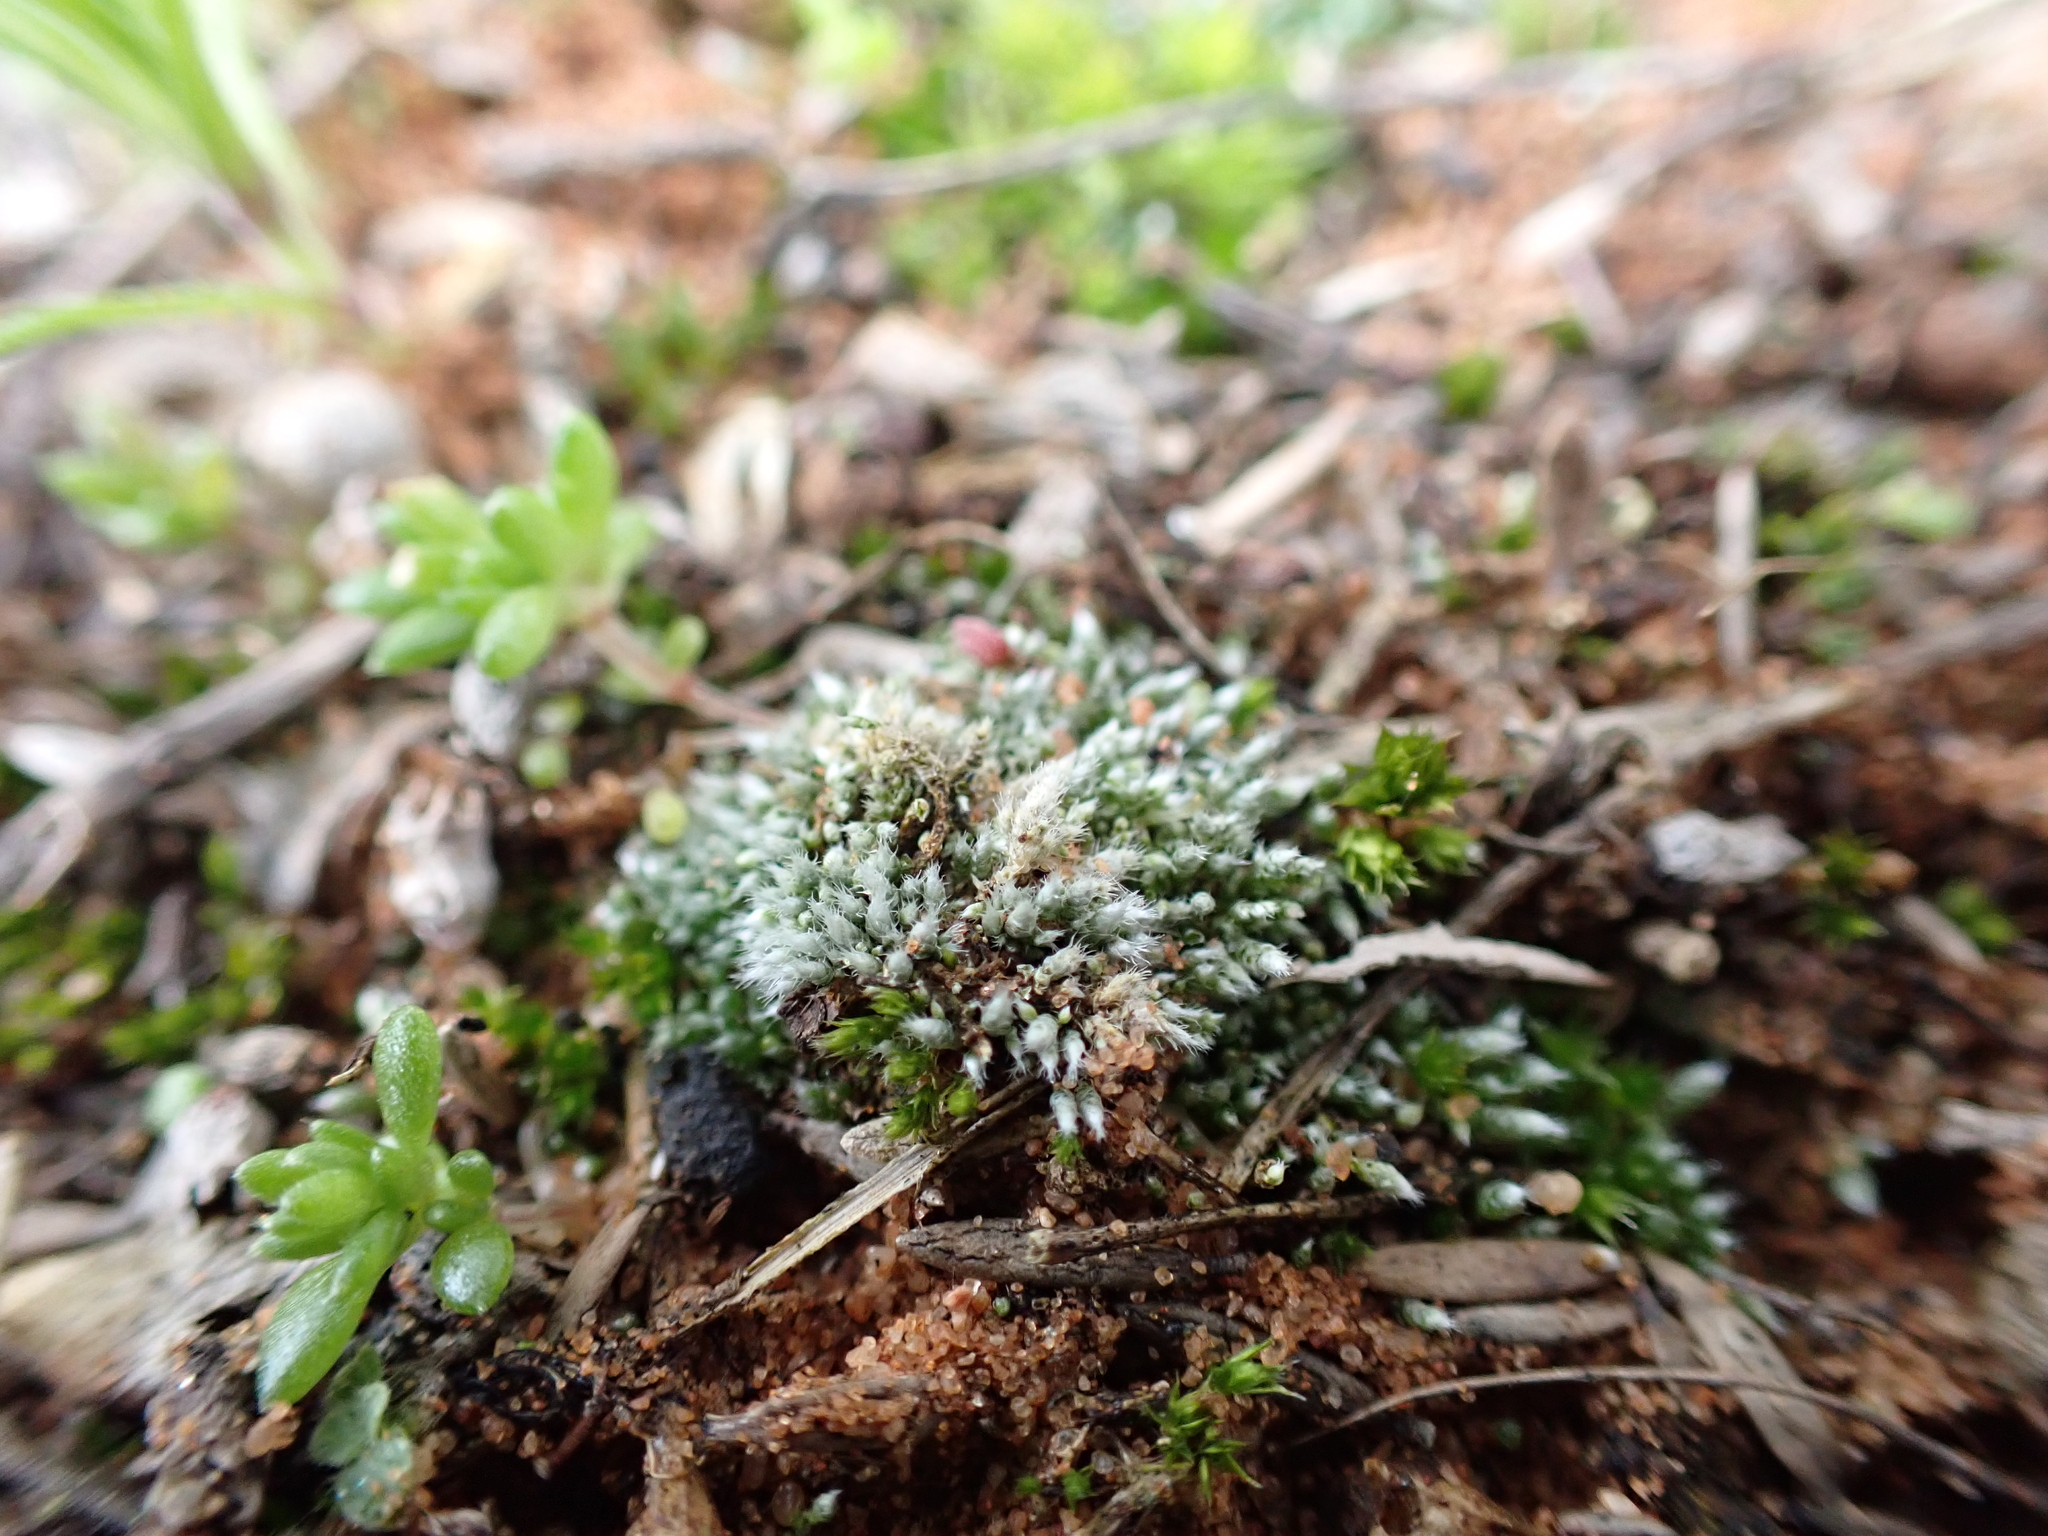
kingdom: Plantae
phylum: Bryophyta
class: Bryopsida
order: Bryales
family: Bryaceae
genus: Bryum
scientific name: Bryum lanatum
